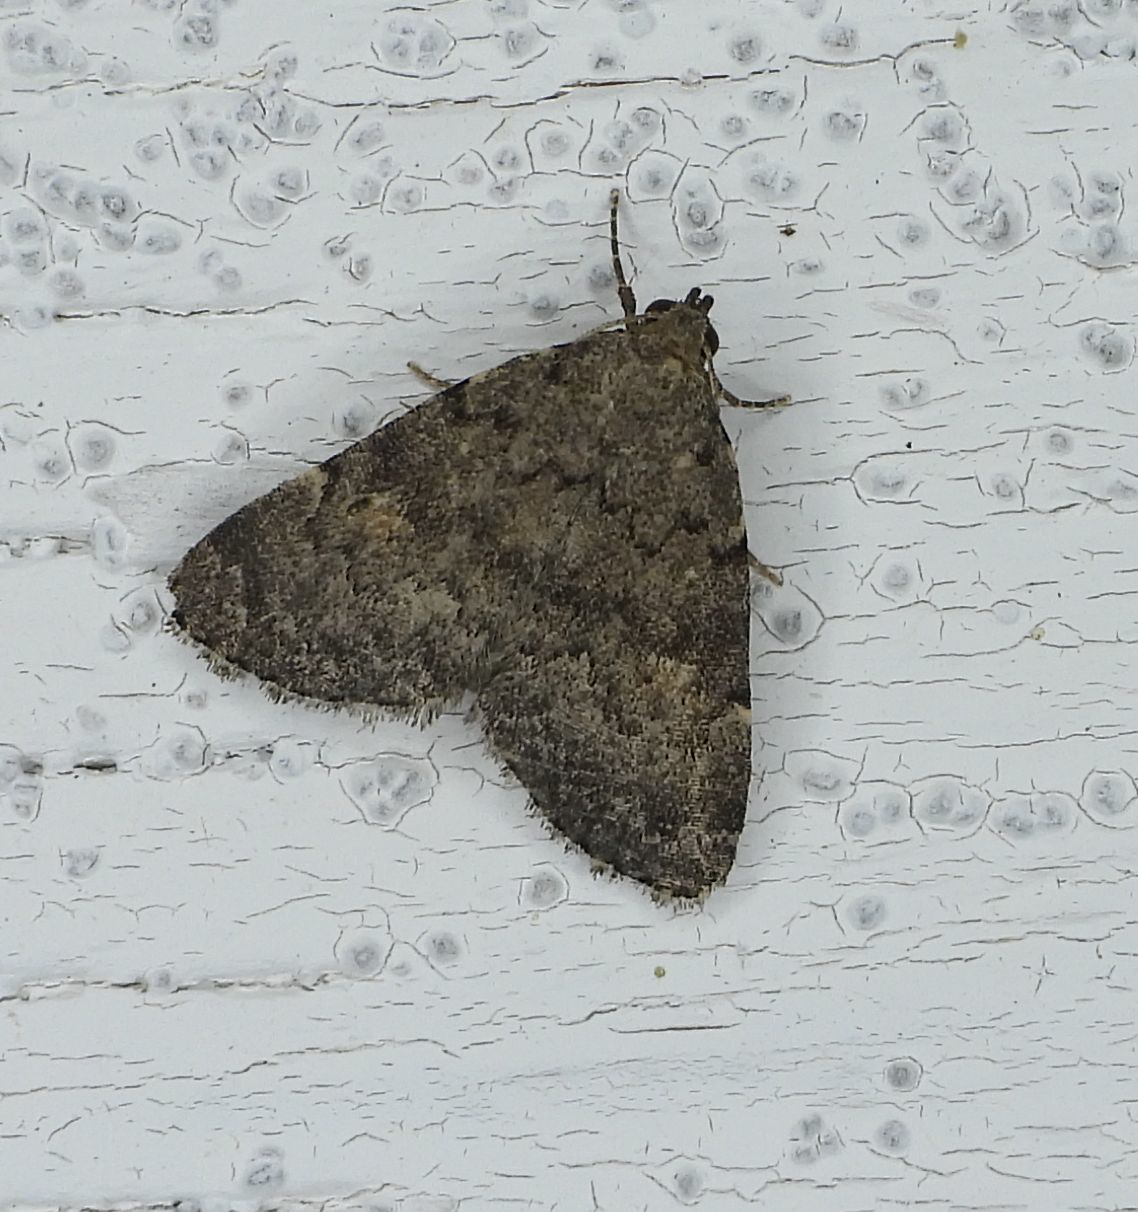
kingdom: Animalia
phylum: Arthropoda
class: Insecta
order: Lepidoptera
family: Erebidae
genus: Idia
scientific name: Idia aemula
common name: Common idia moth
